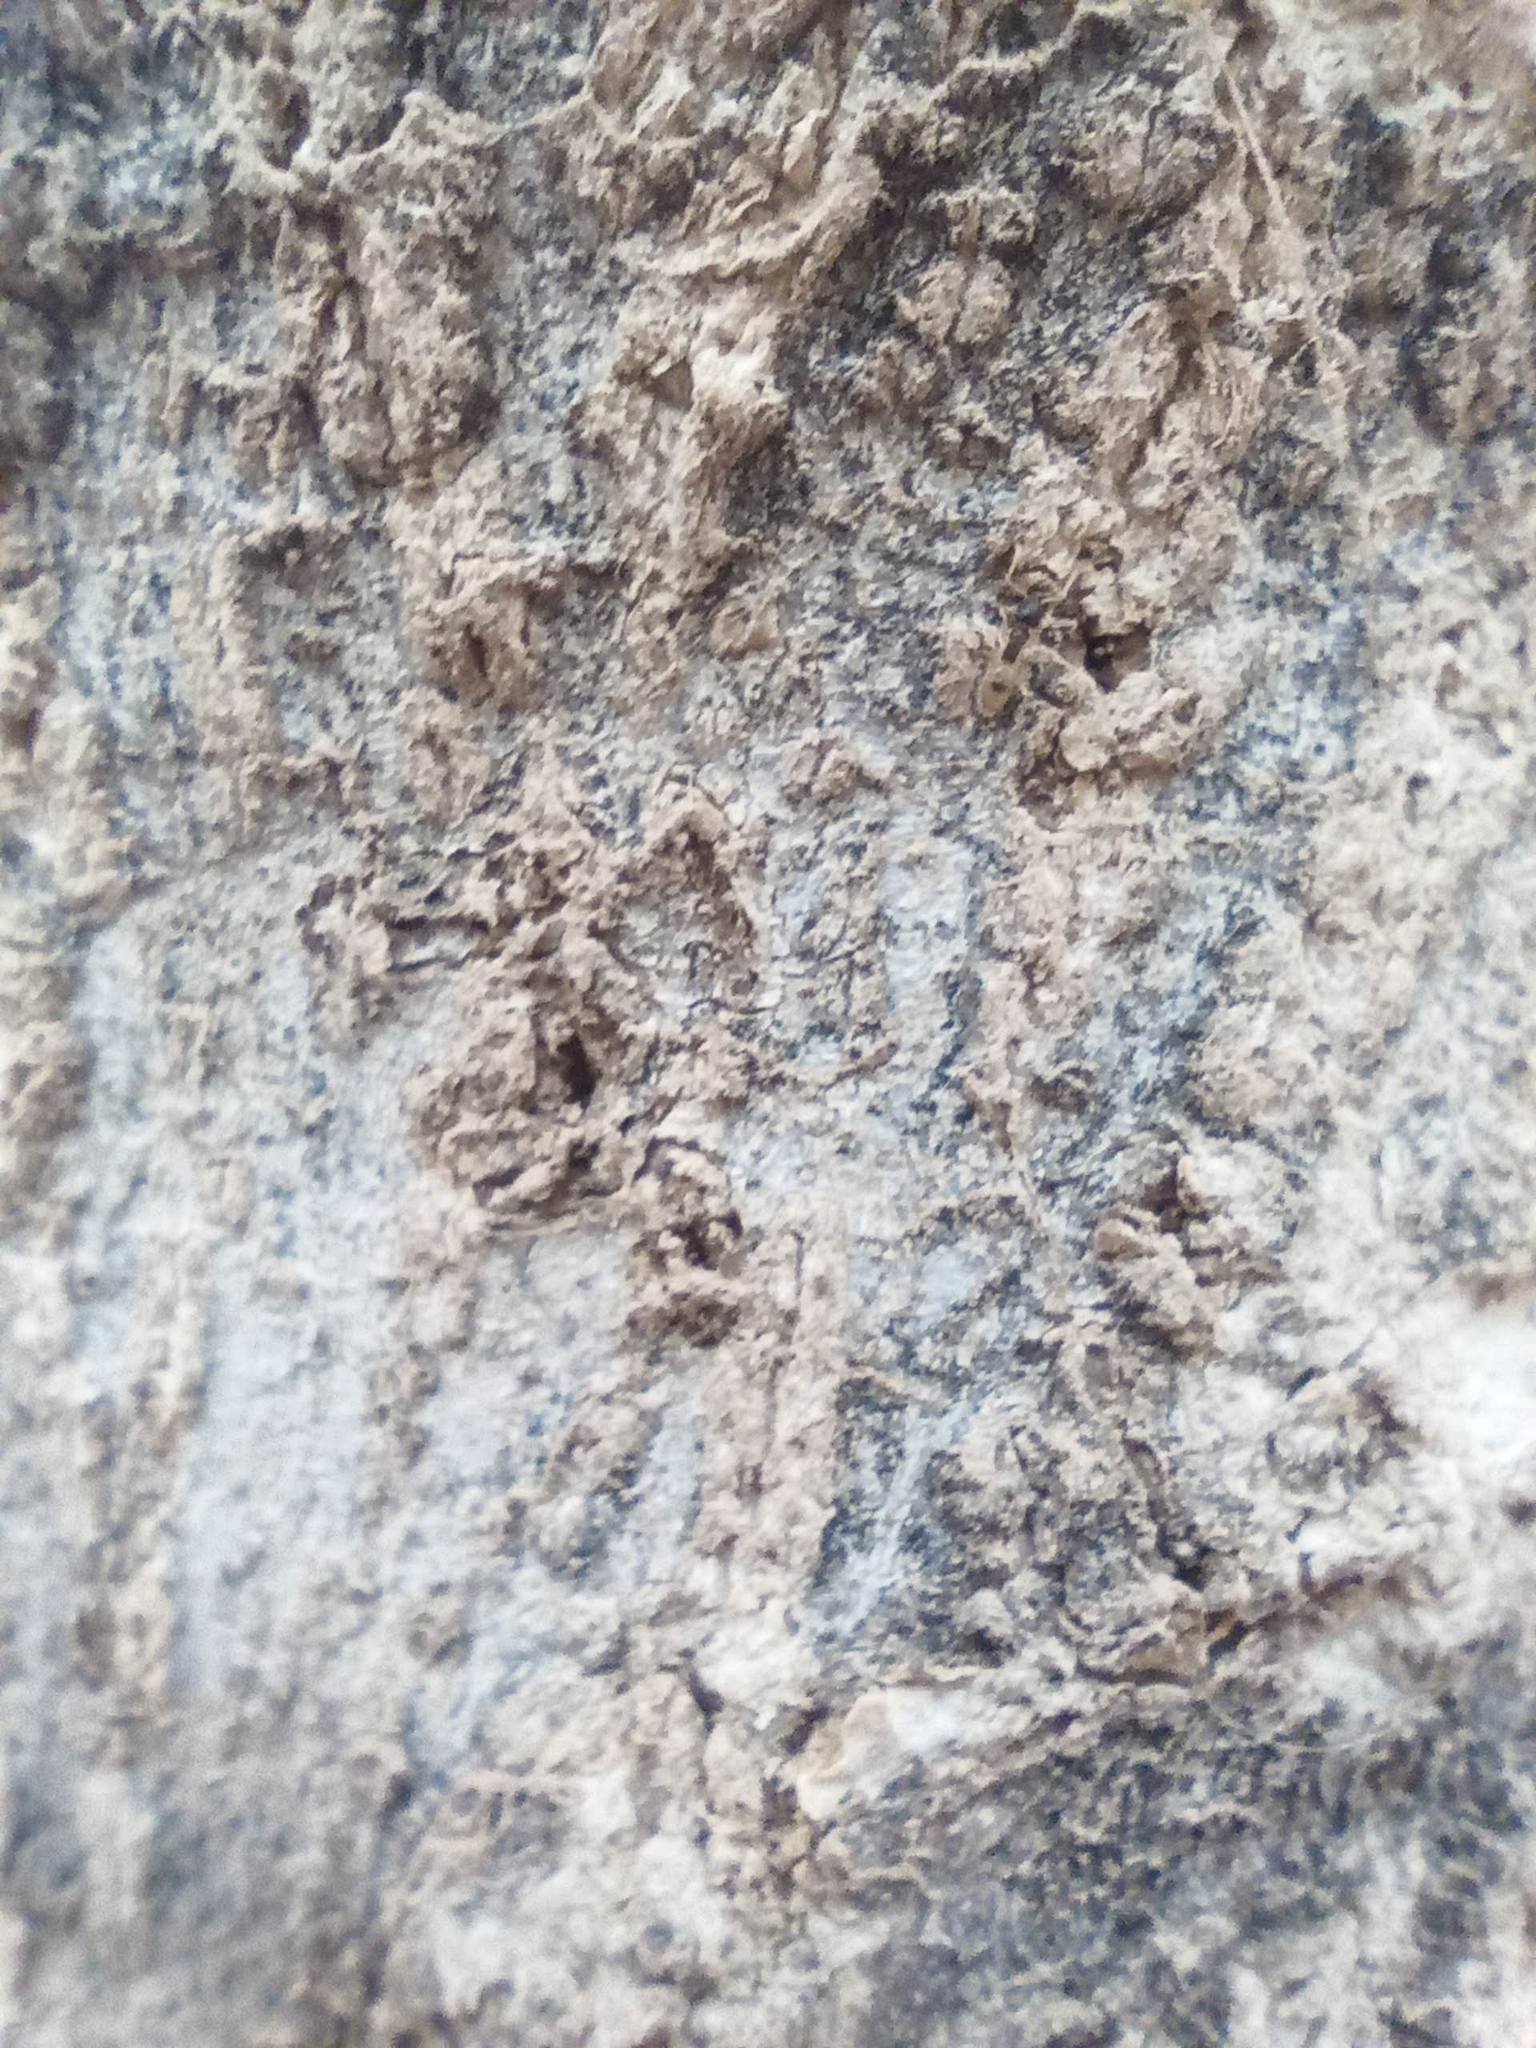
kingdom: Animalia
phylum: Arthropoda
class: Insecta
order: Hymenoptera
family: Formicidae
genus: Tapinoma
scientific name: Tapinoma melanocephalum
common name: Ghost ant
